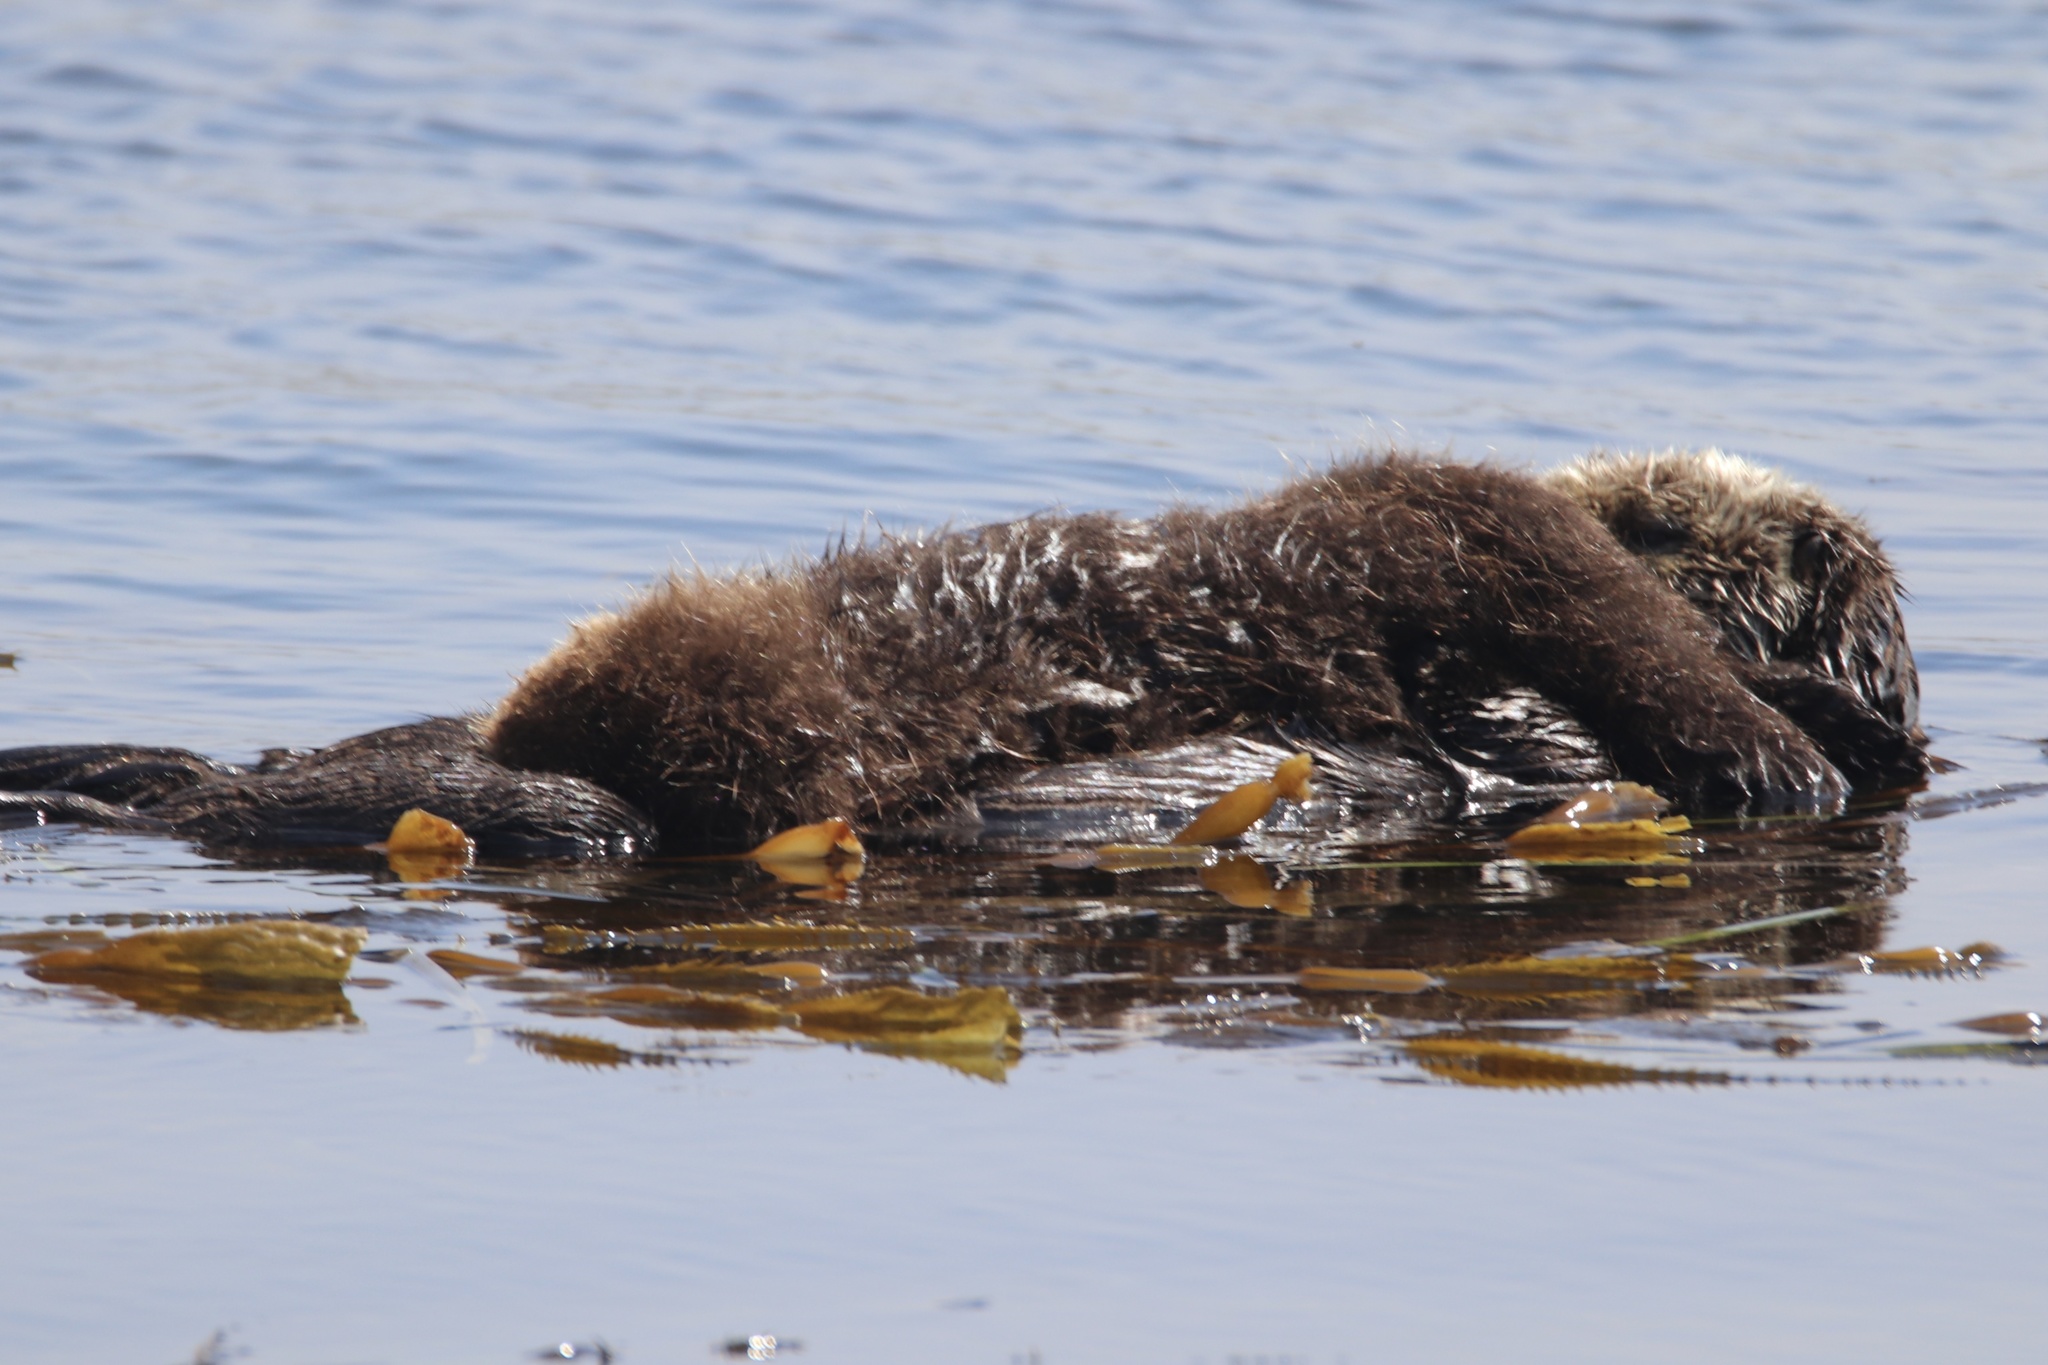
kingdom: Animalia
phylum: Chordata
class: Mammalia
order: Carnivora
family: Mustelidae
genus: Enhydra
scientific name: Enhydra lutris
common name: Sea otter
